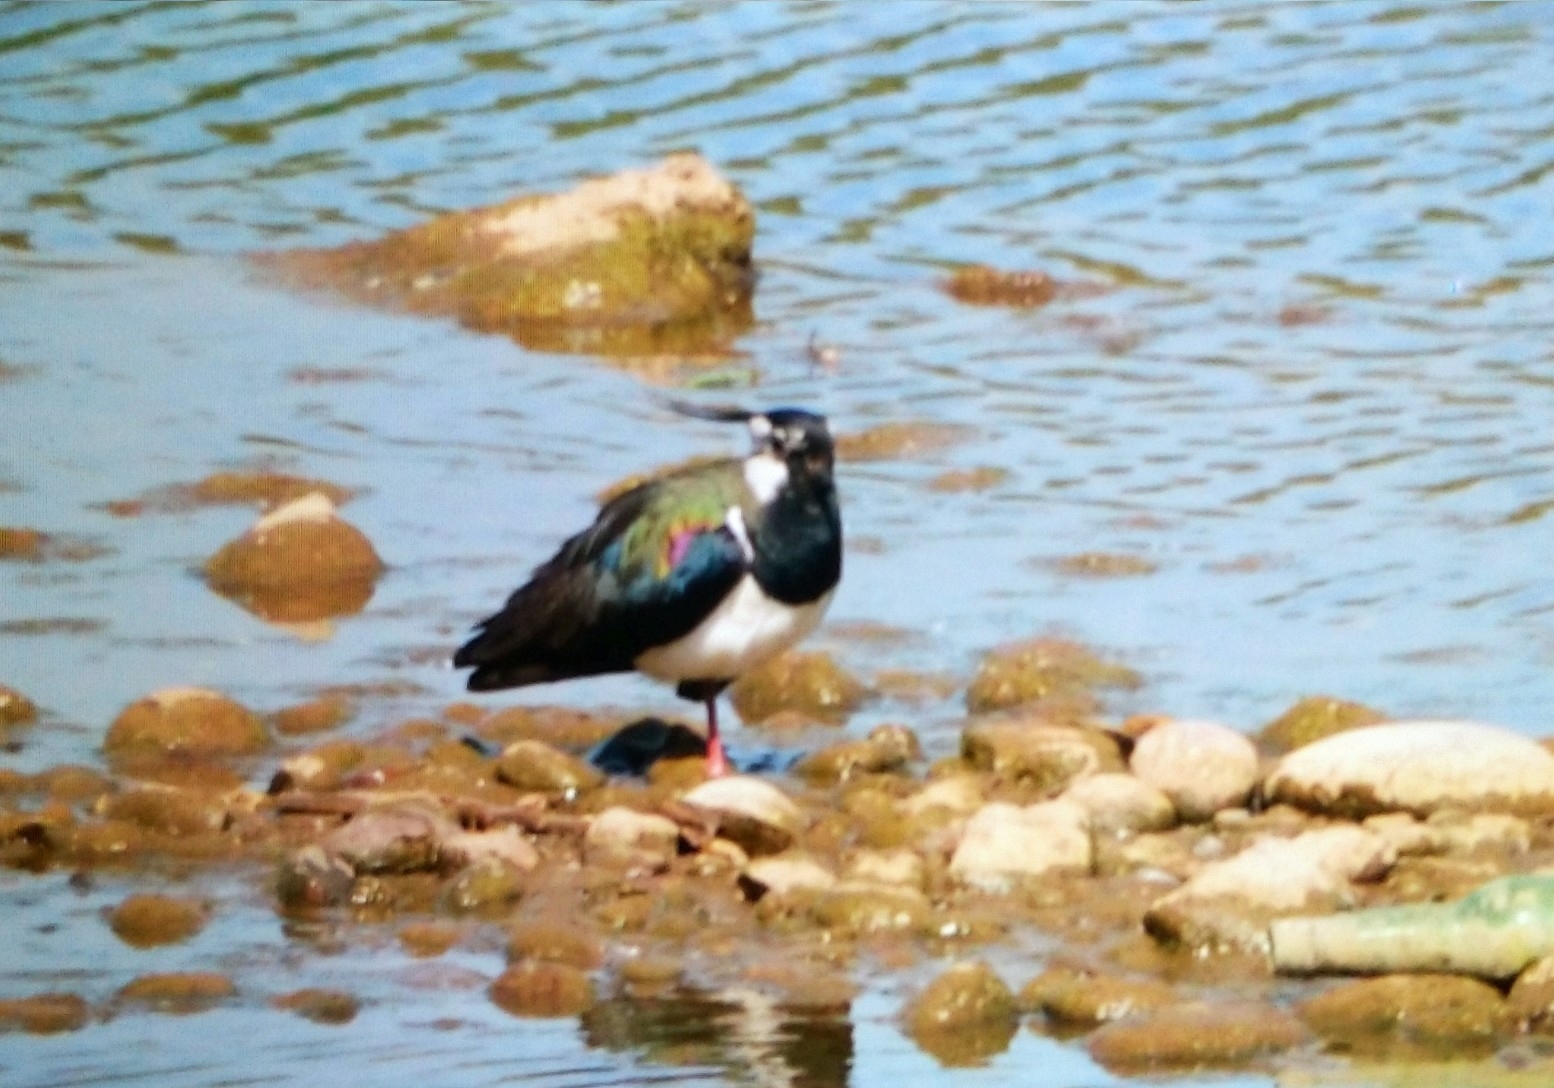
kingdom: Animalia
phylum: Chordata
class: Aves
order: Charadriiformes
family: Charadriidae
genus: Vanellus
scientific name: Vanellus vanellus
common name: Northern lapwing
